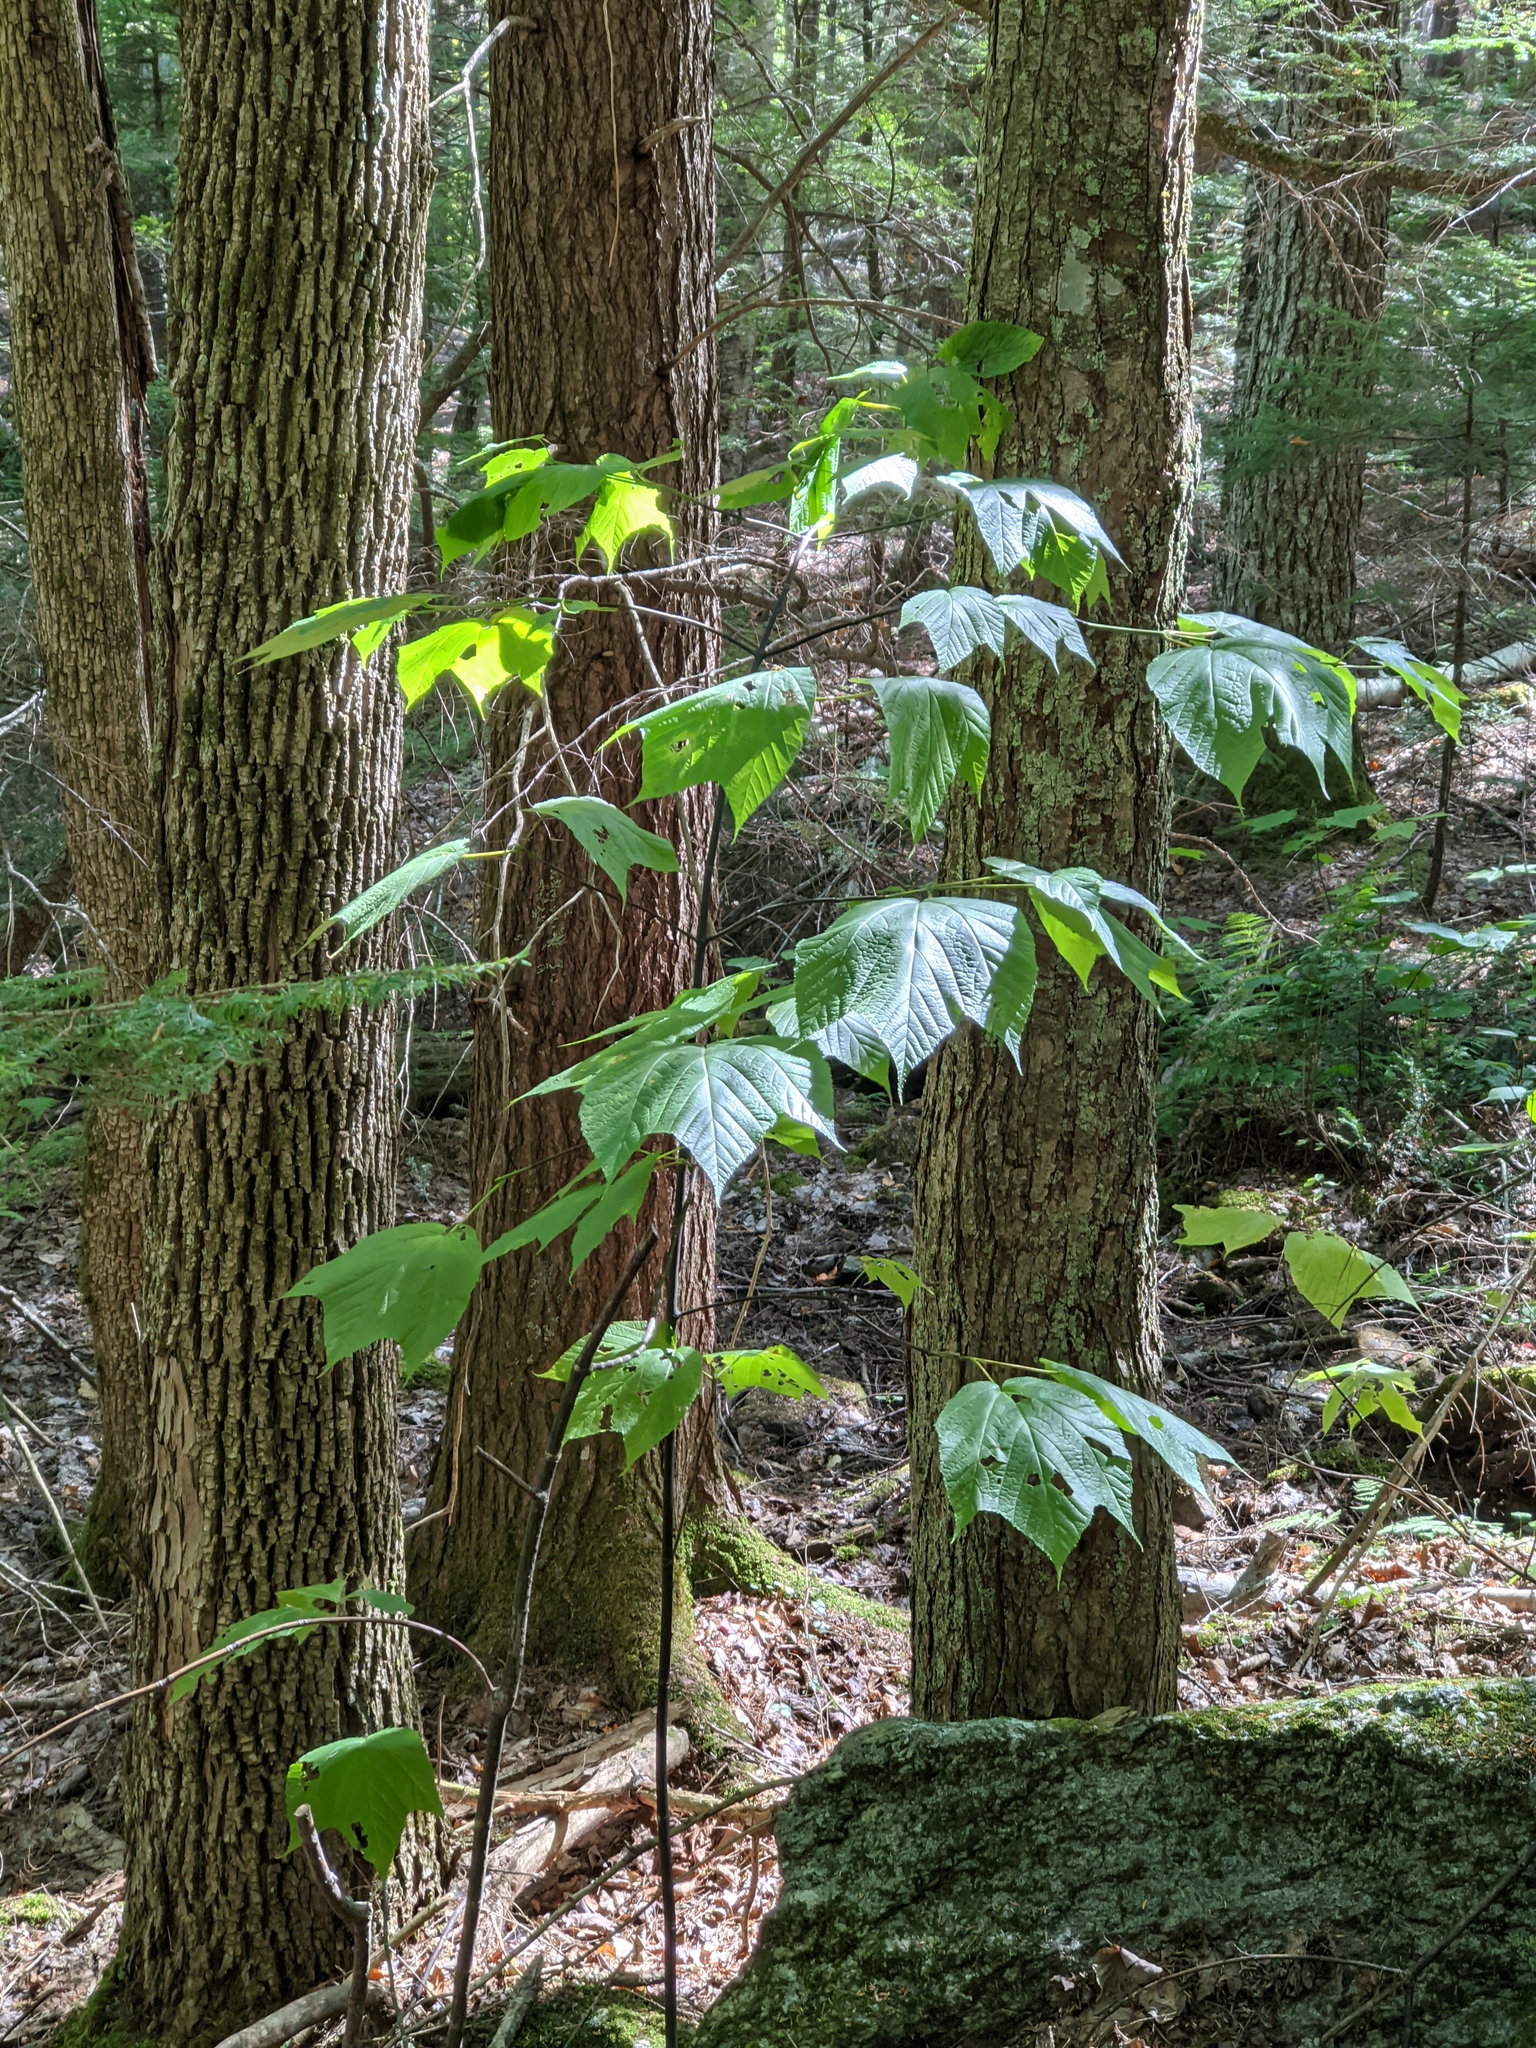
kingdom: Plantae
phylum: Tracheophyta
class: Magnoliopsida
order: Sapindales
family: Sapindaceae
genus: Acer
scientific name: Acer pensylvanicum
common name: Moosewood
